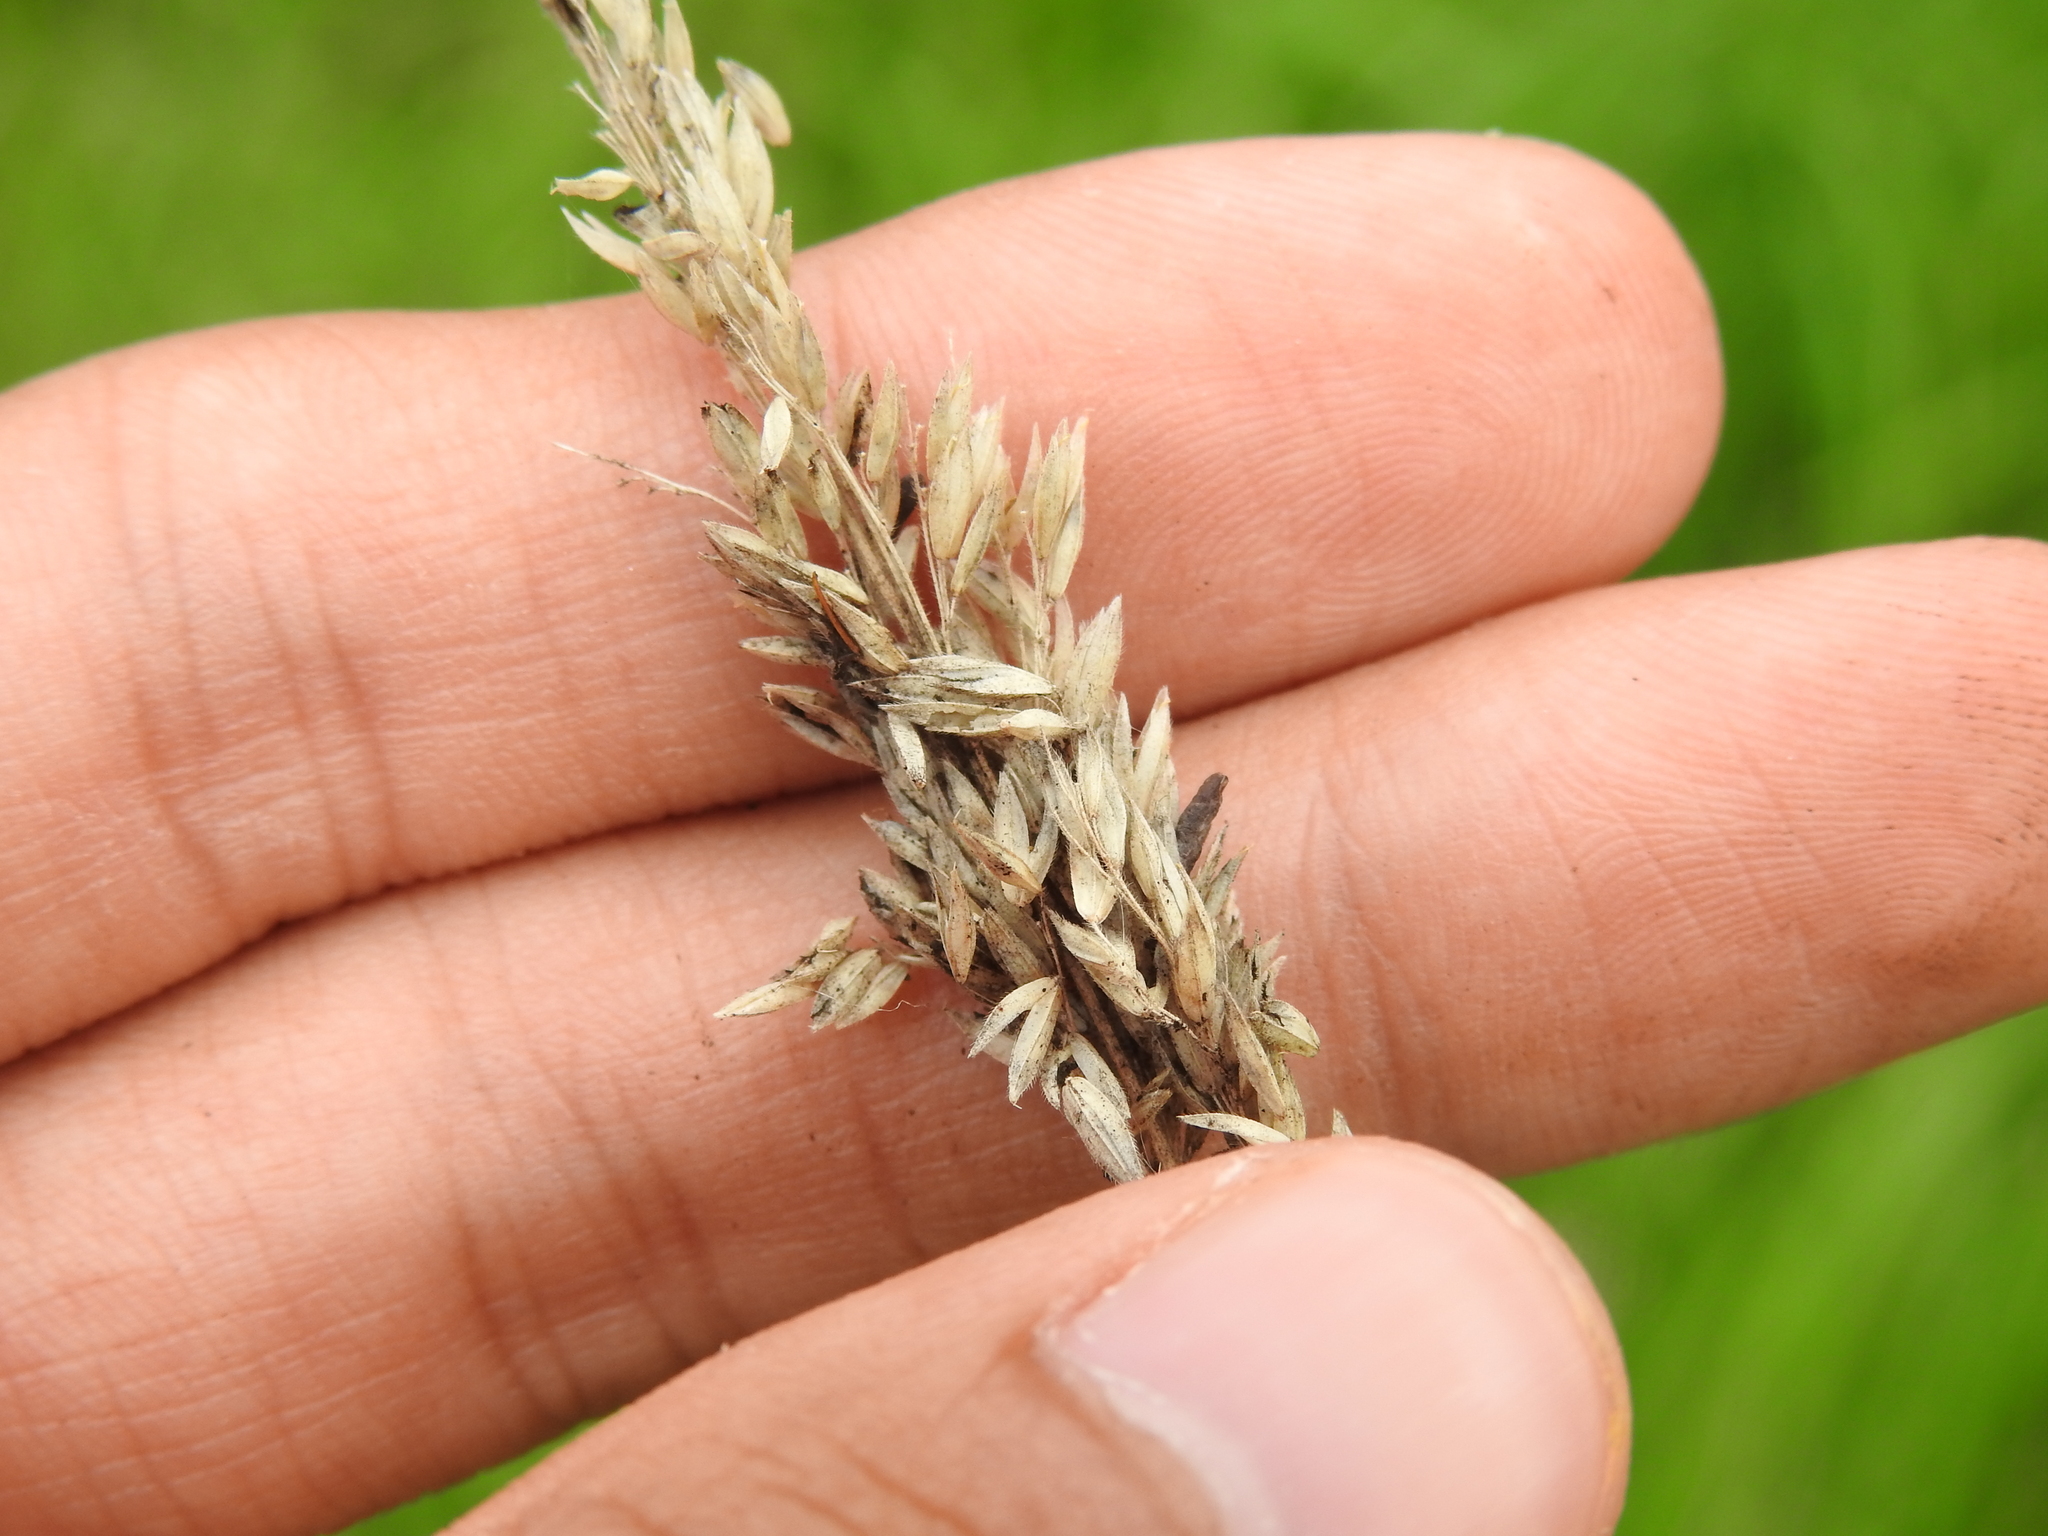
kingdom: Fungi
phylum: Ascomycota
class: Sordariomycetes
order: Hypocreales
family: Clavicipitaceae
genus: Claviceps
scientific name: Claviceps purpurea
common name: Rye ergot
